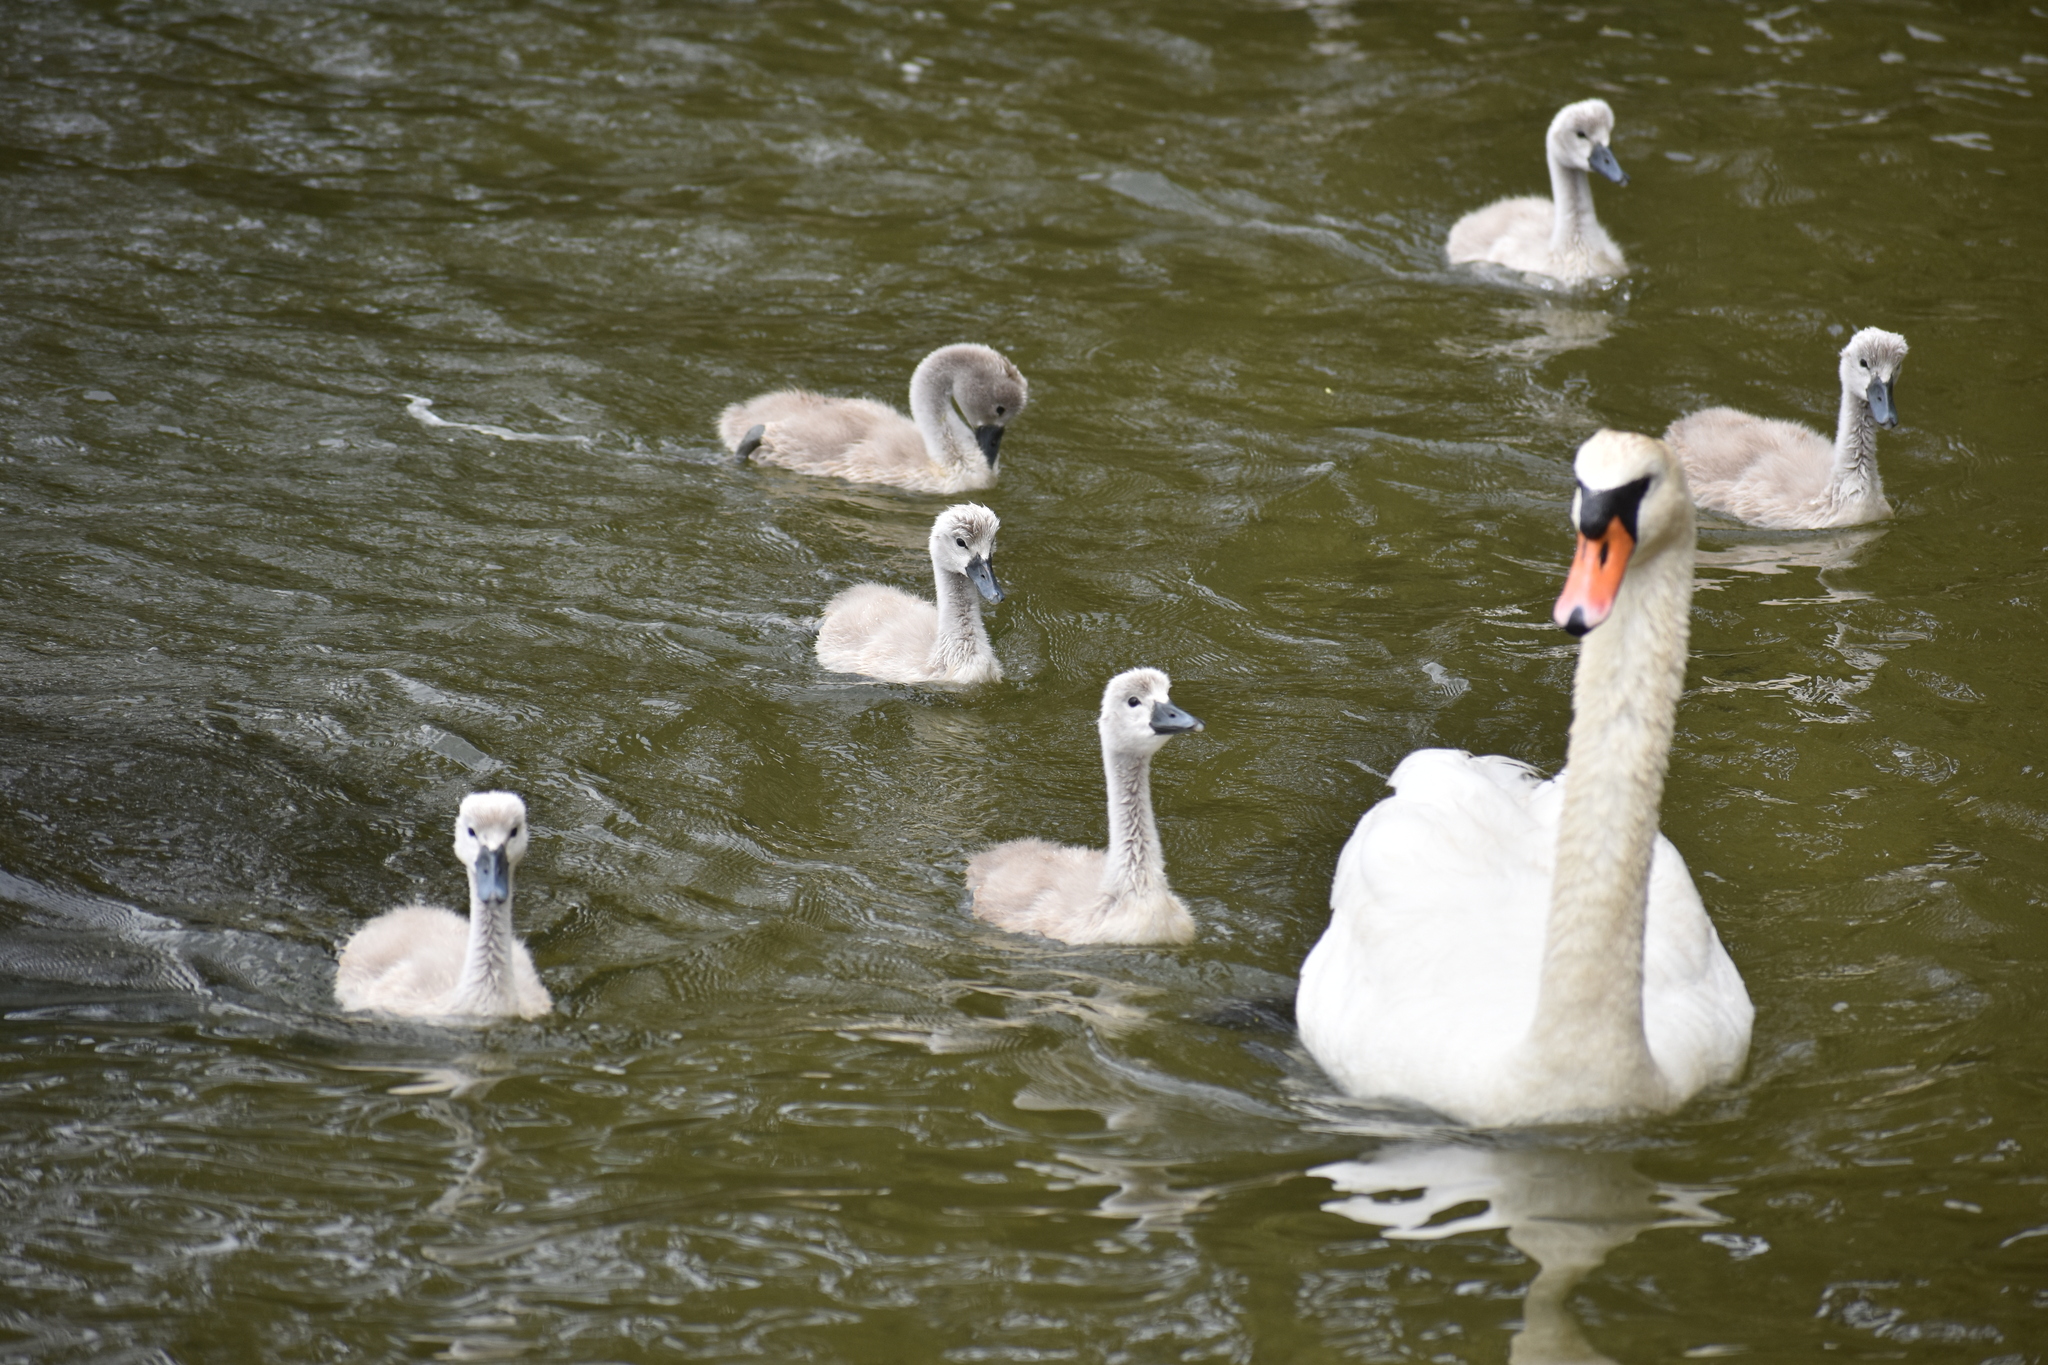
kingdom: Animalia
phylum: Chordata
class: Aves
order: Anseriformes
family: Anatidae
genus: Cygnus
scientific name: Cygnus olor
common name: Mute swan
